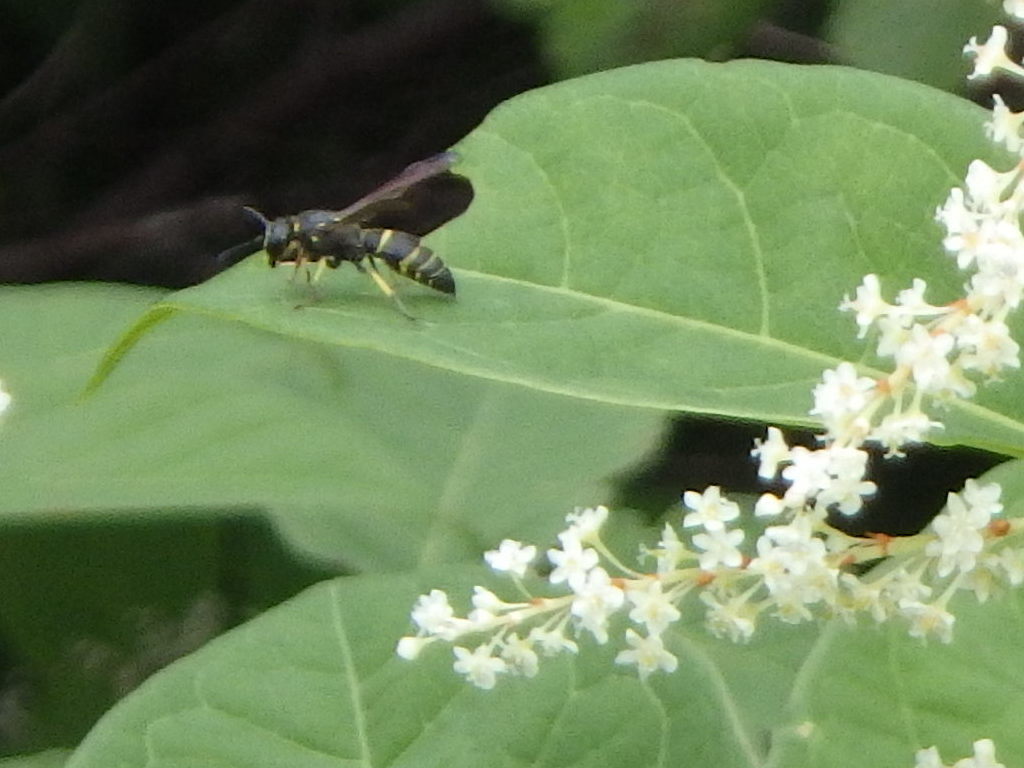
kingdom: Animalia
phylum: Arthropoda
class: Insecta
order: Hymenoptera
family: Vespidae
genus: Ancistrocerus
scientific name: Ancistrocerus
